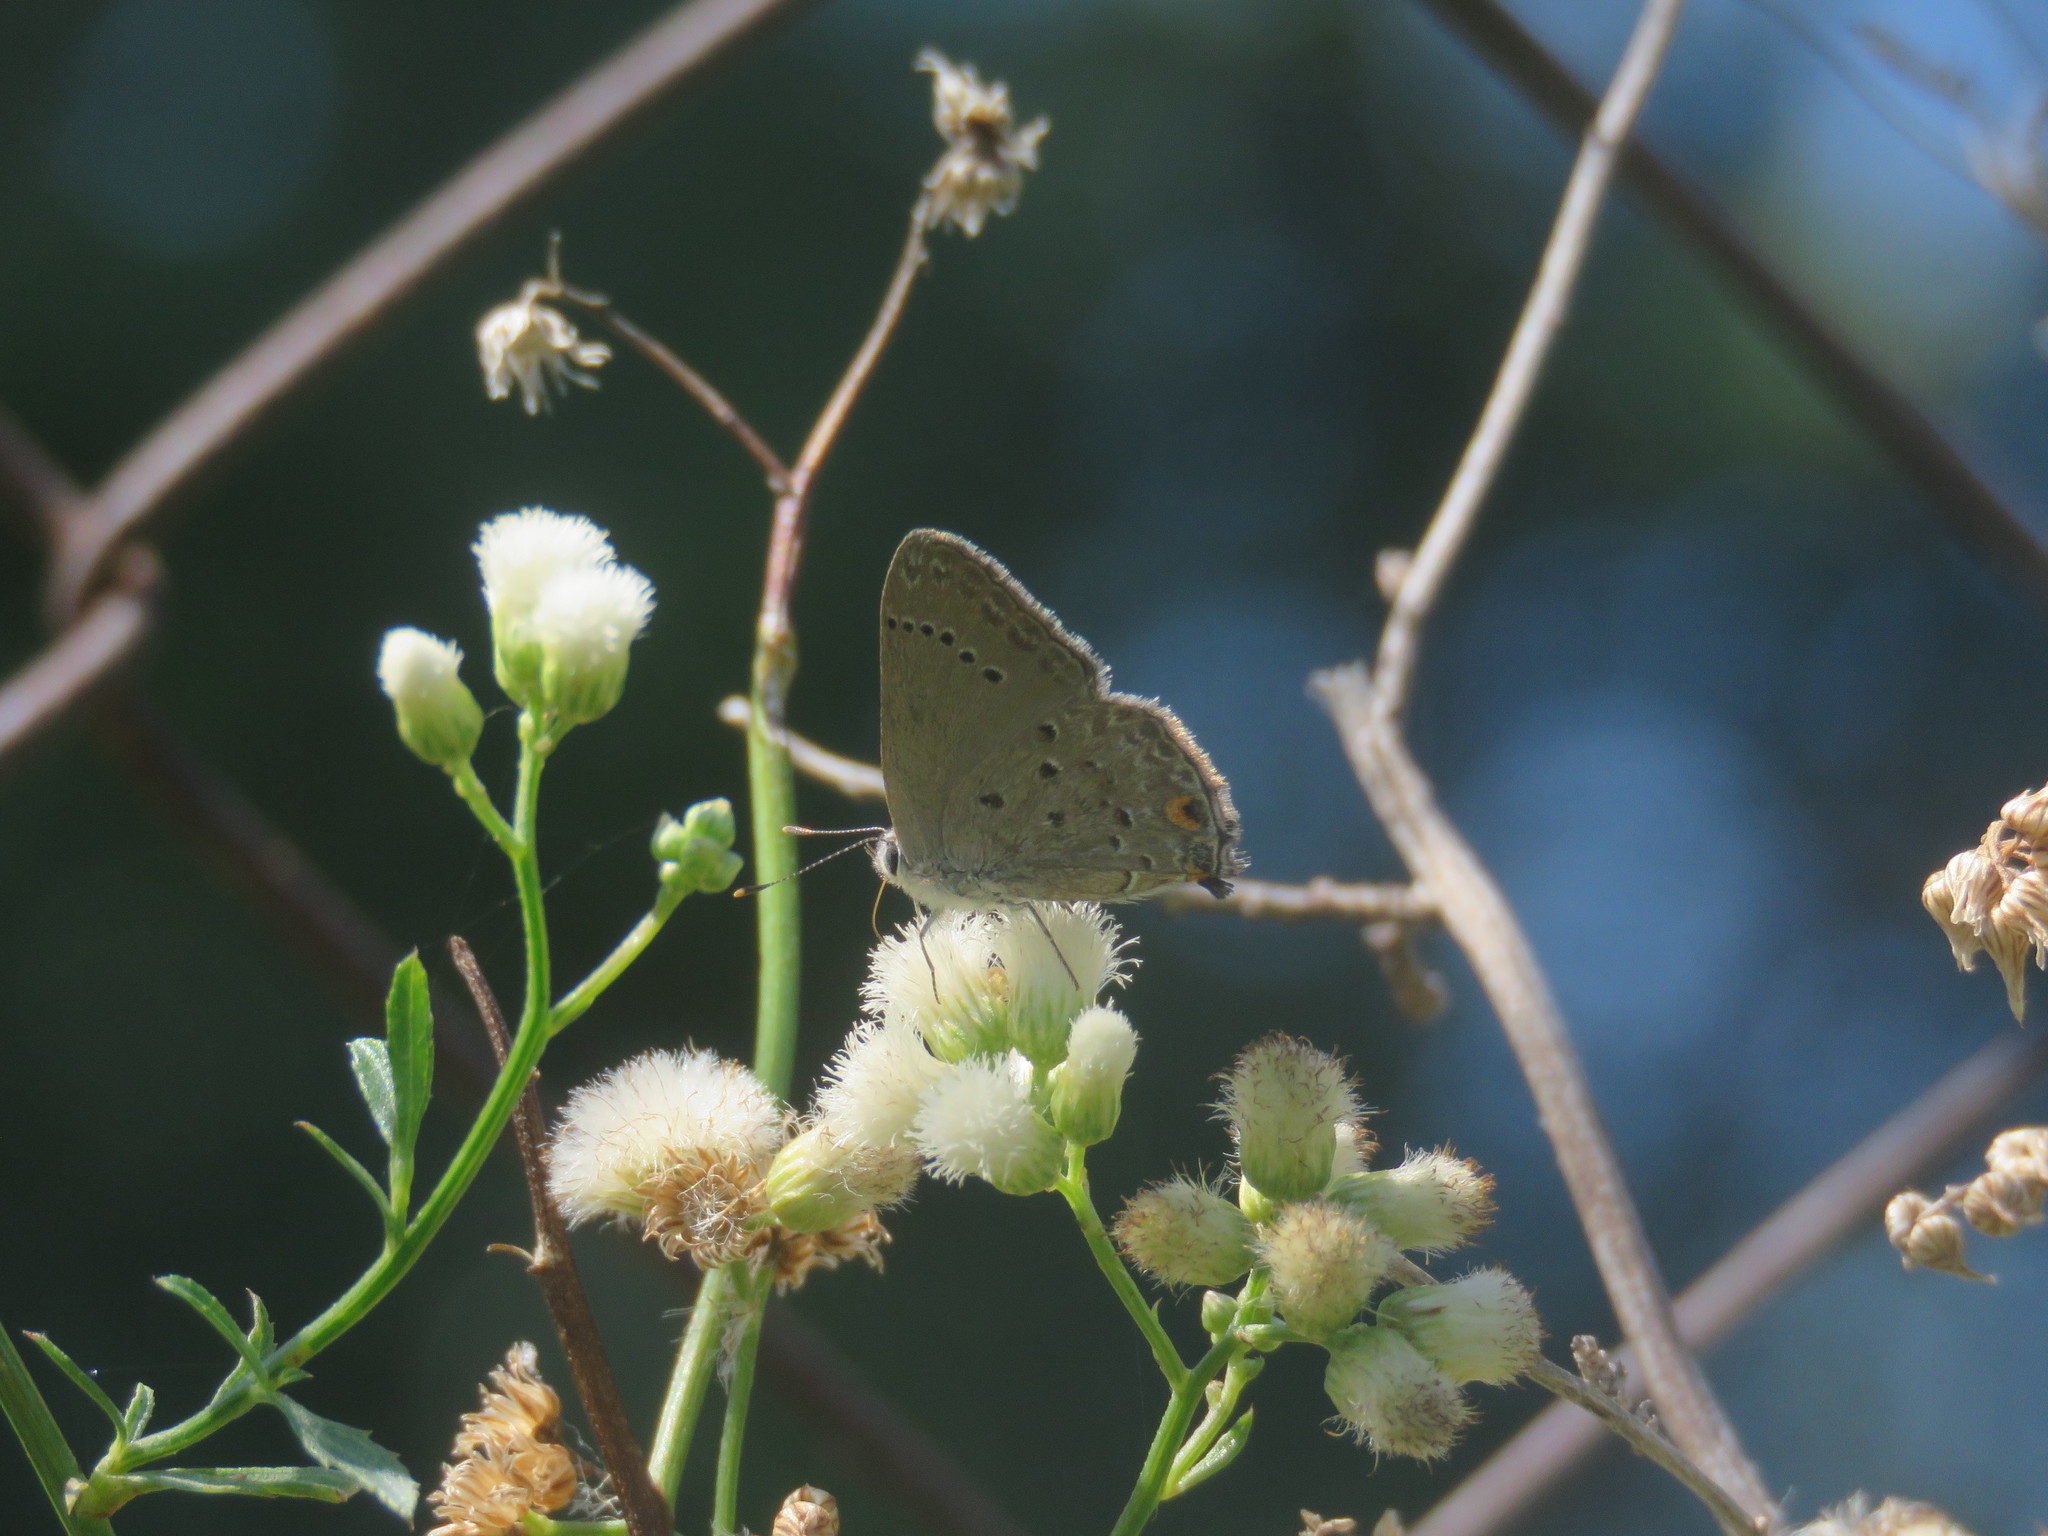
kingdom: Animalia
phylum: Arthropoda
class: Insecta
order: Lepidoptera
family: Lycaenidae
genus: Strymon
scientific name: Strymon eurytulus
